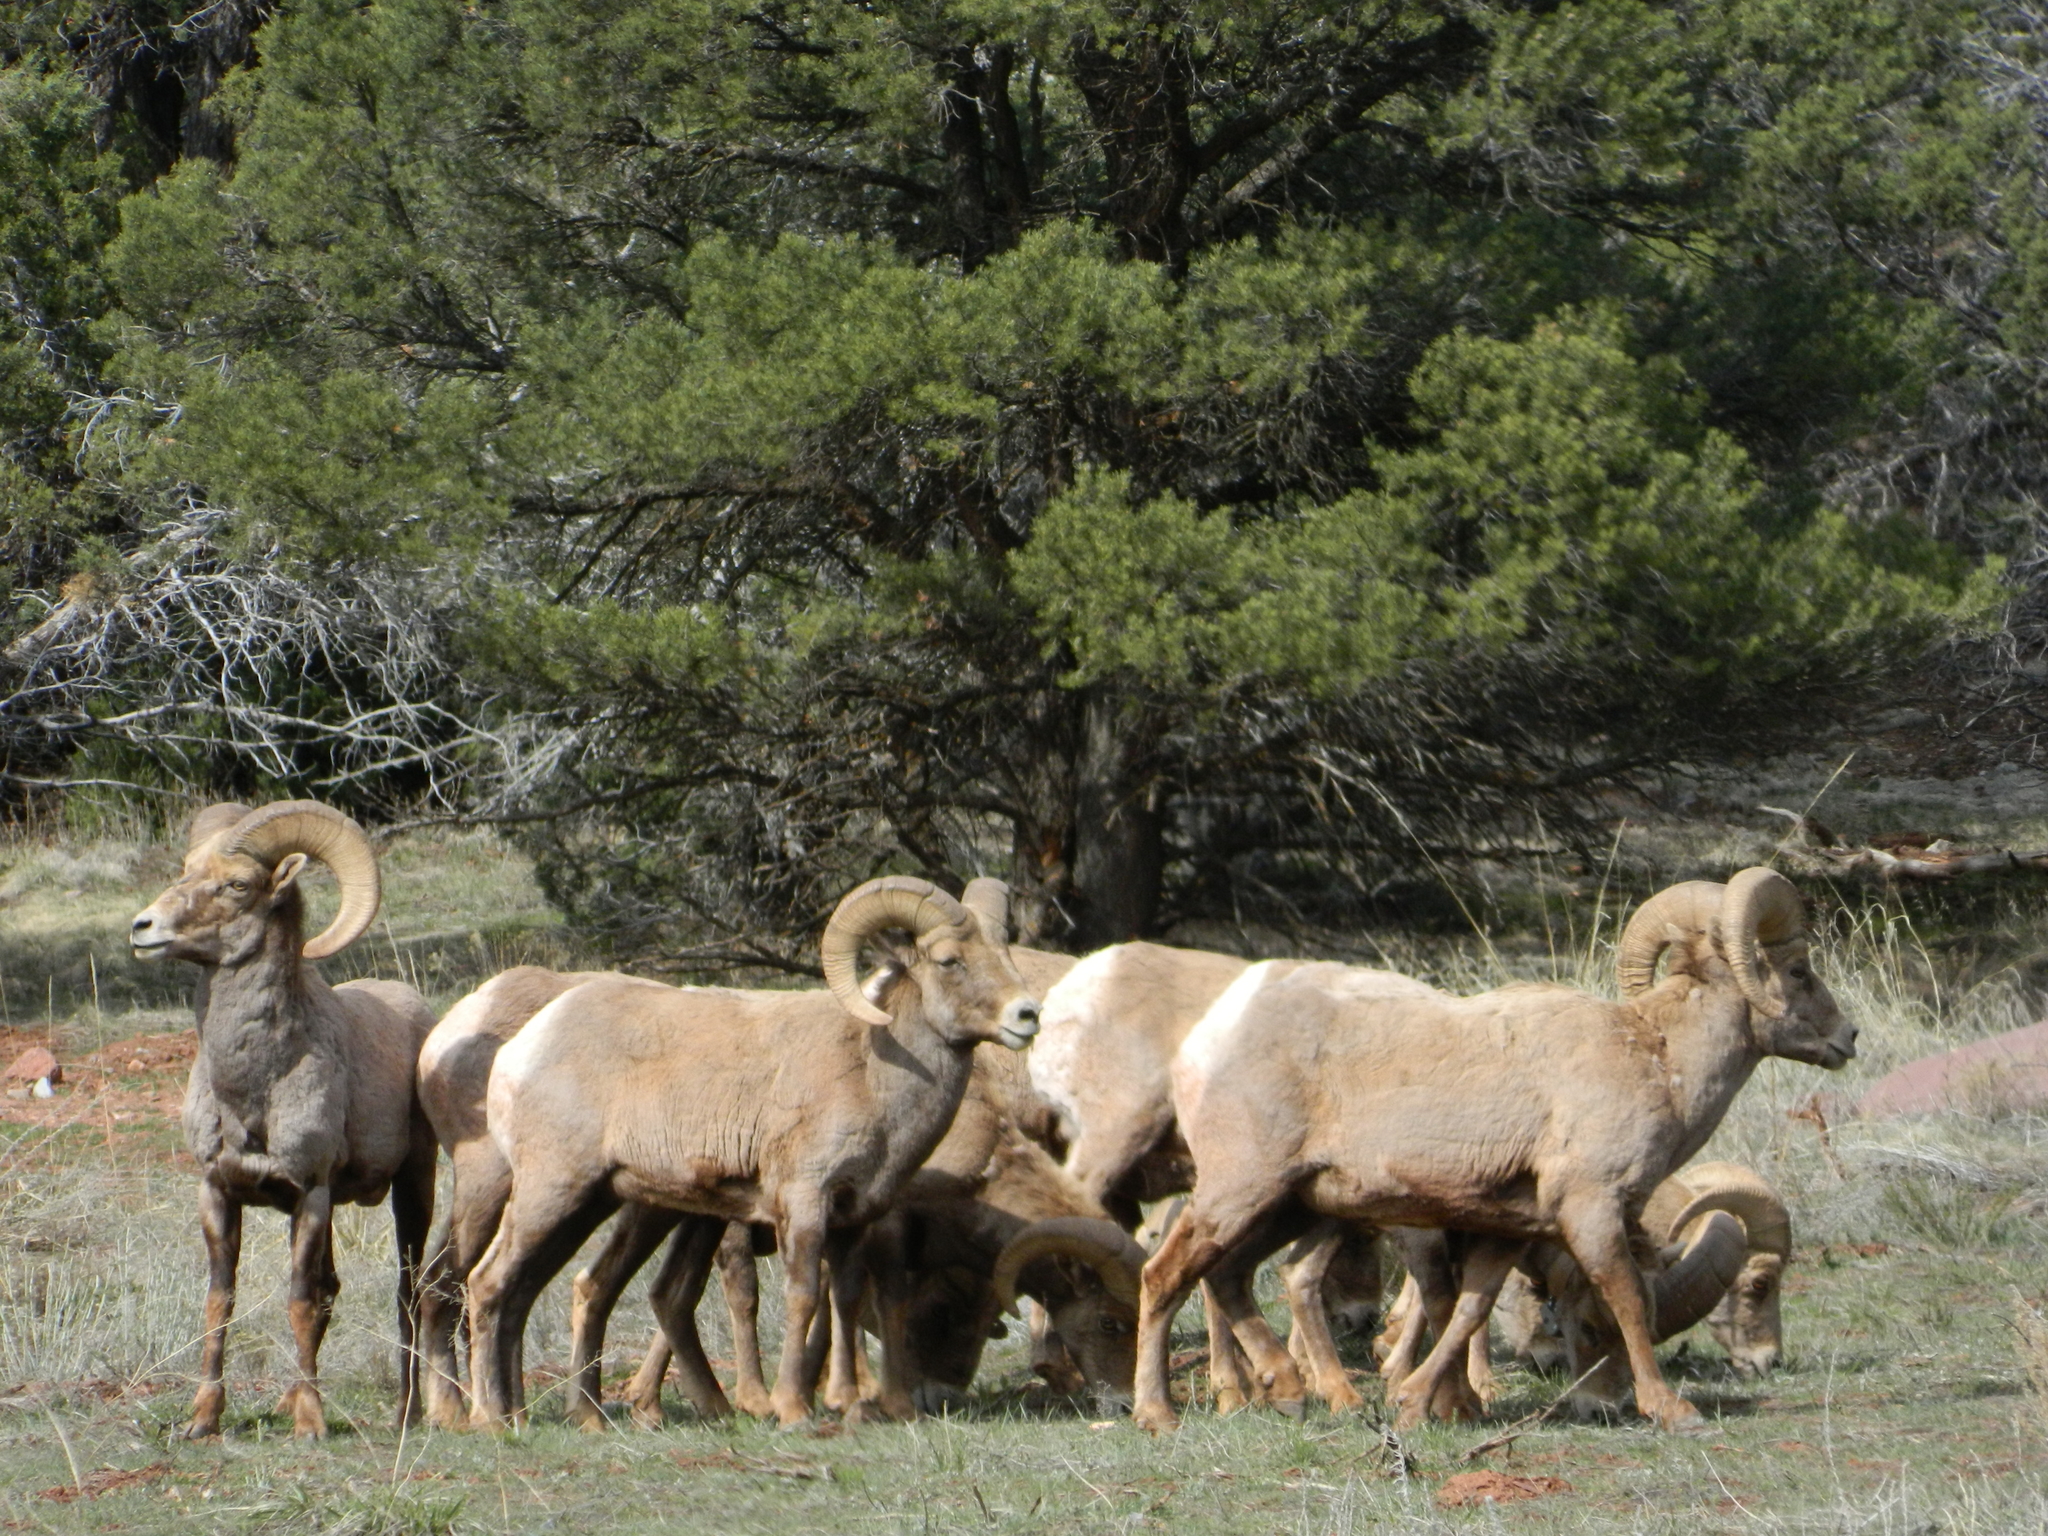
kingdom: Animalia
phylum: Chordata
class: Mammalia
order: Artiodactyla
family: Bovidae
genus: Ovis
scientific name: Ovis canadensis
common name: Bighorn sheep
